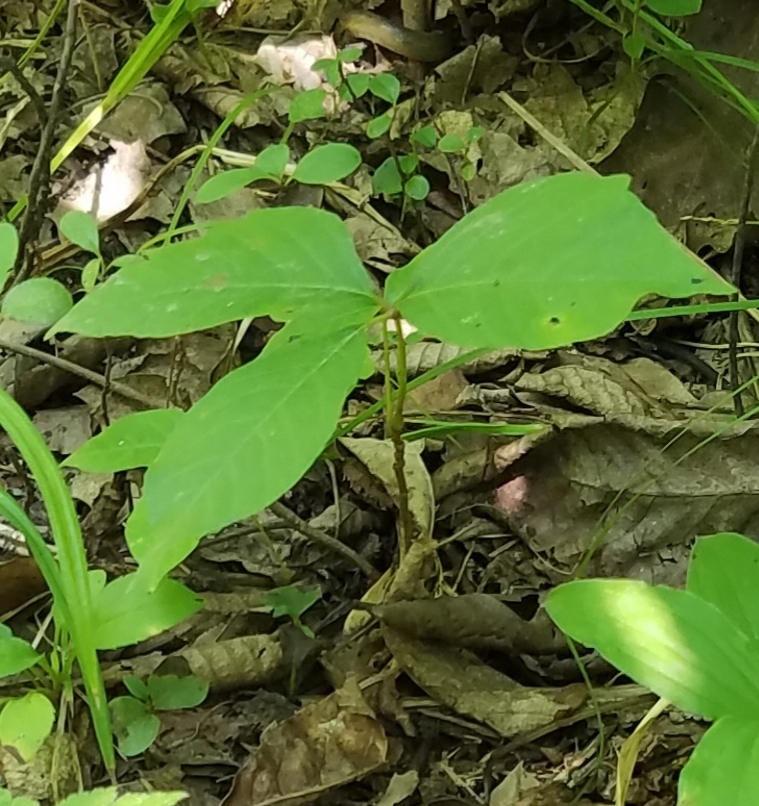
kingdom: Plantae
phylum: Tracheophyta
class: Liliopsida
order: Alismatales
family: Araceae
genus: Arisaema
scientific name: Arisaema triphyllum
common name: Jack-in-the-pulpit
